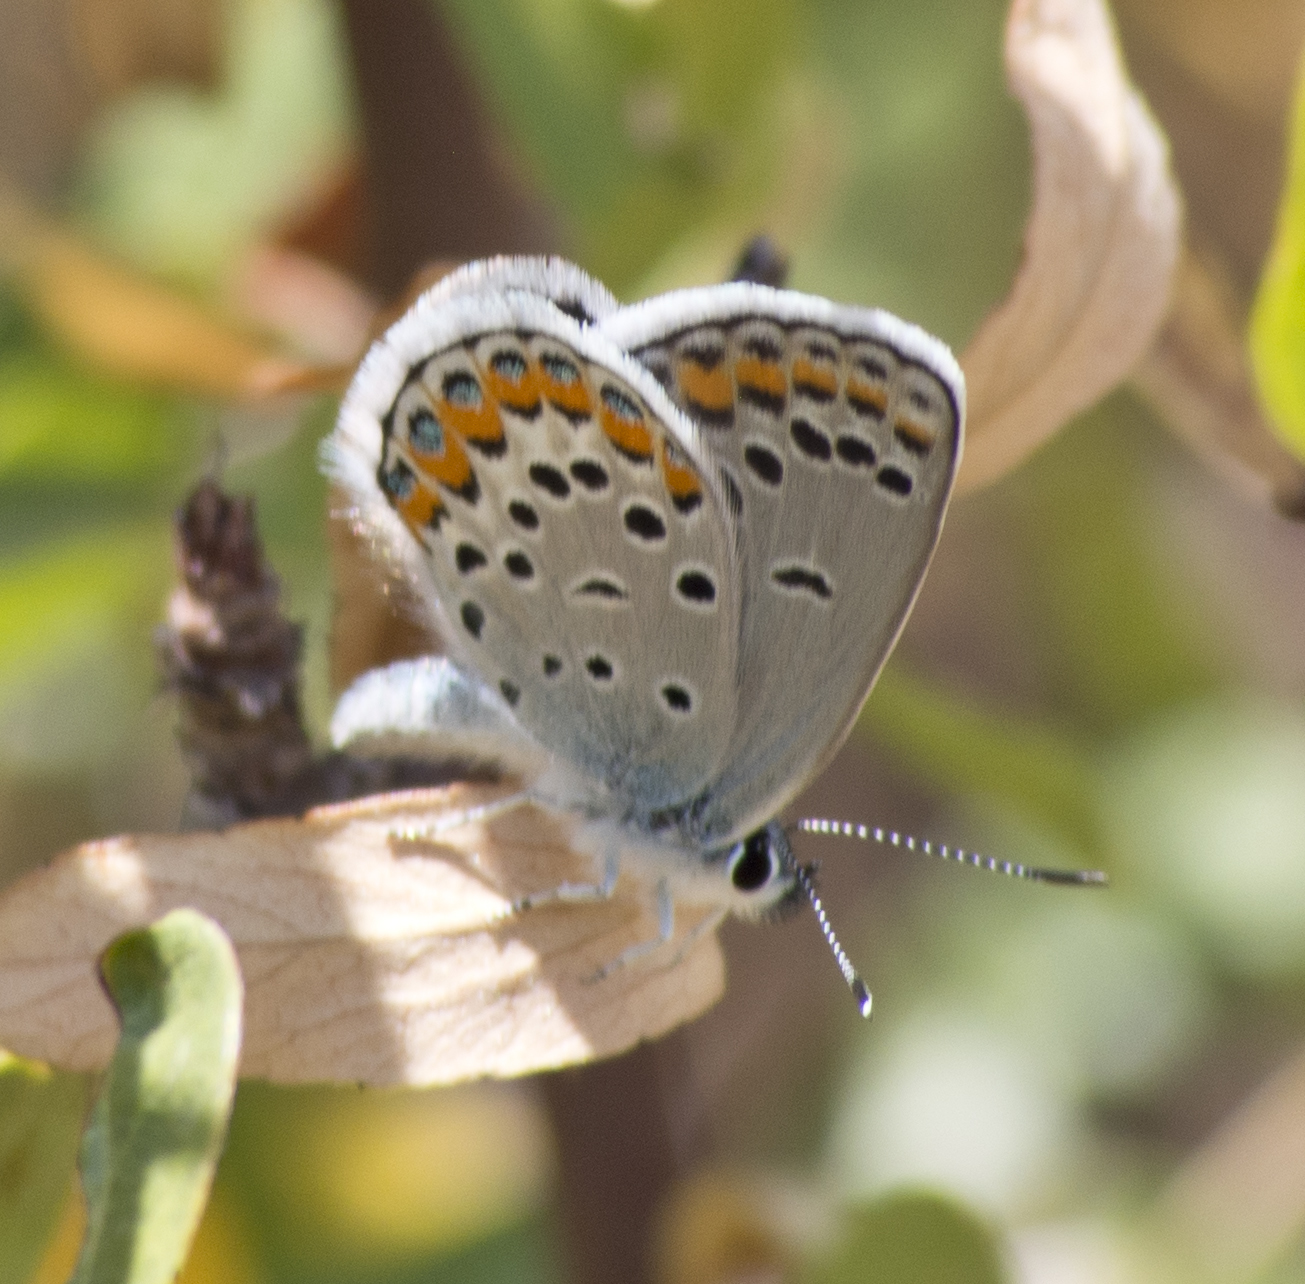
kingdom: Animalia
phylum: Arthropoda
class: Insecta
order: Lepidoptera
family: Lycaenidae
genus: Lycaeides
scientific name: Lycaeides melissa
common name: Melissa blue
